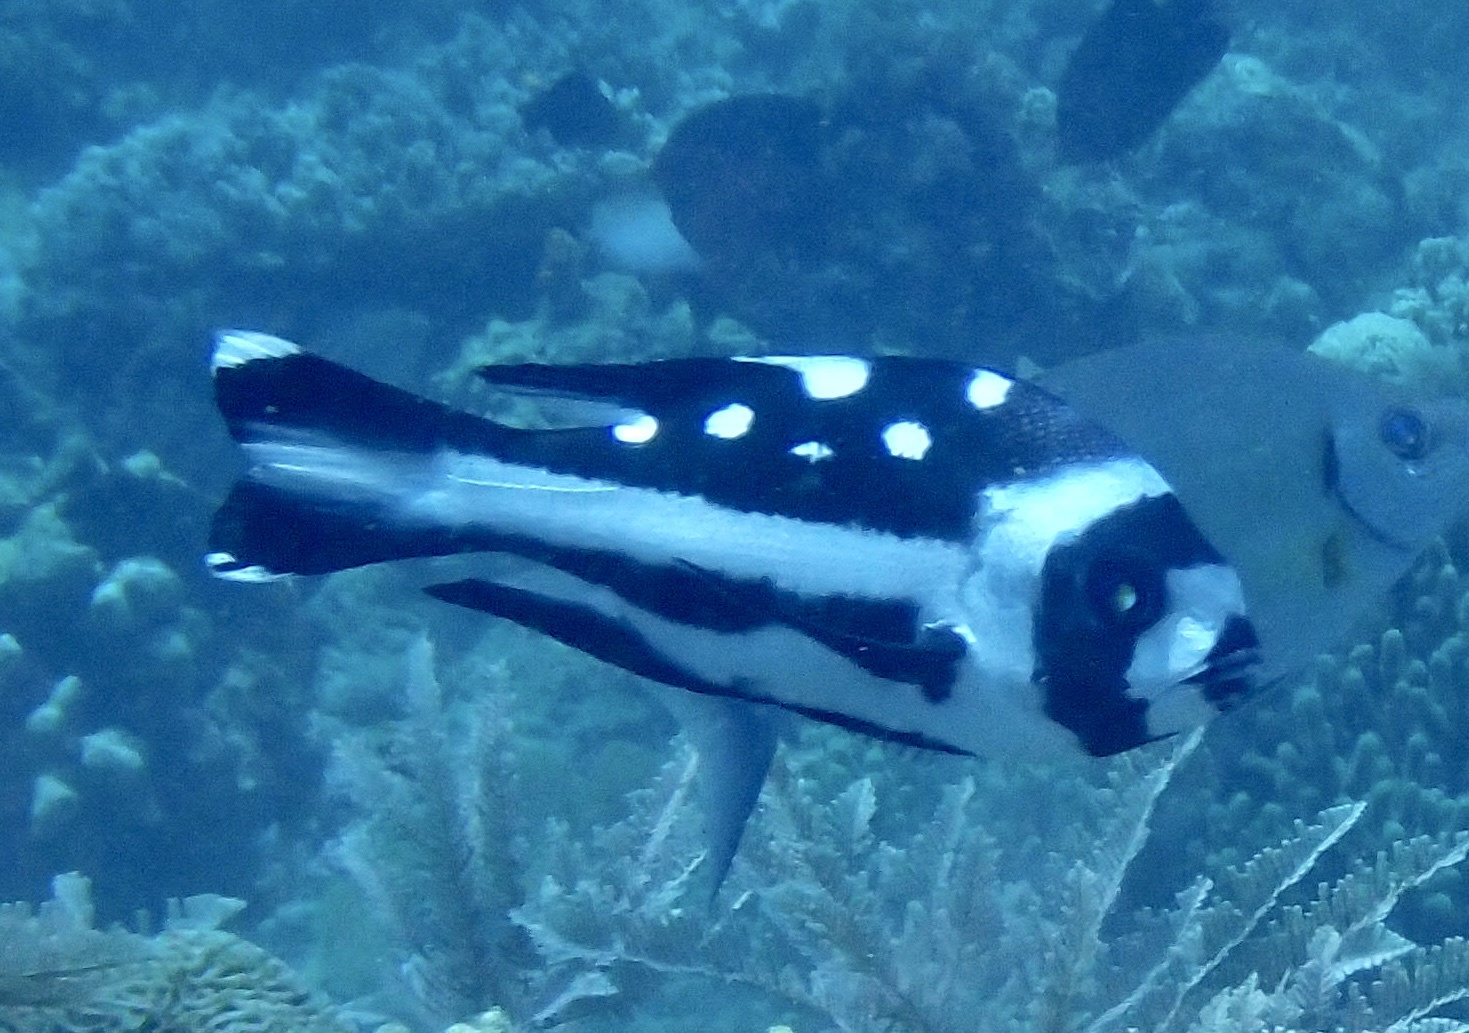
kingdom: Animalia
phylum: Chordata
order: Perciformes
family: Lutjanidae
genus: Macolor
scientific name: Macolor niger
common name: Black snapper
